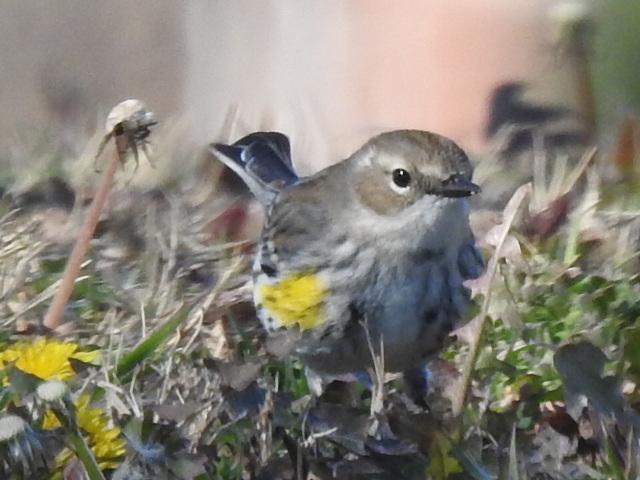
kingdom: Animalia
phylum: Chordata
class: Aves
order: Passeriformes
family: Parulidae
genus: Setophaga
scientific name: Setophaga coronata
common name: Myrtle warbler
